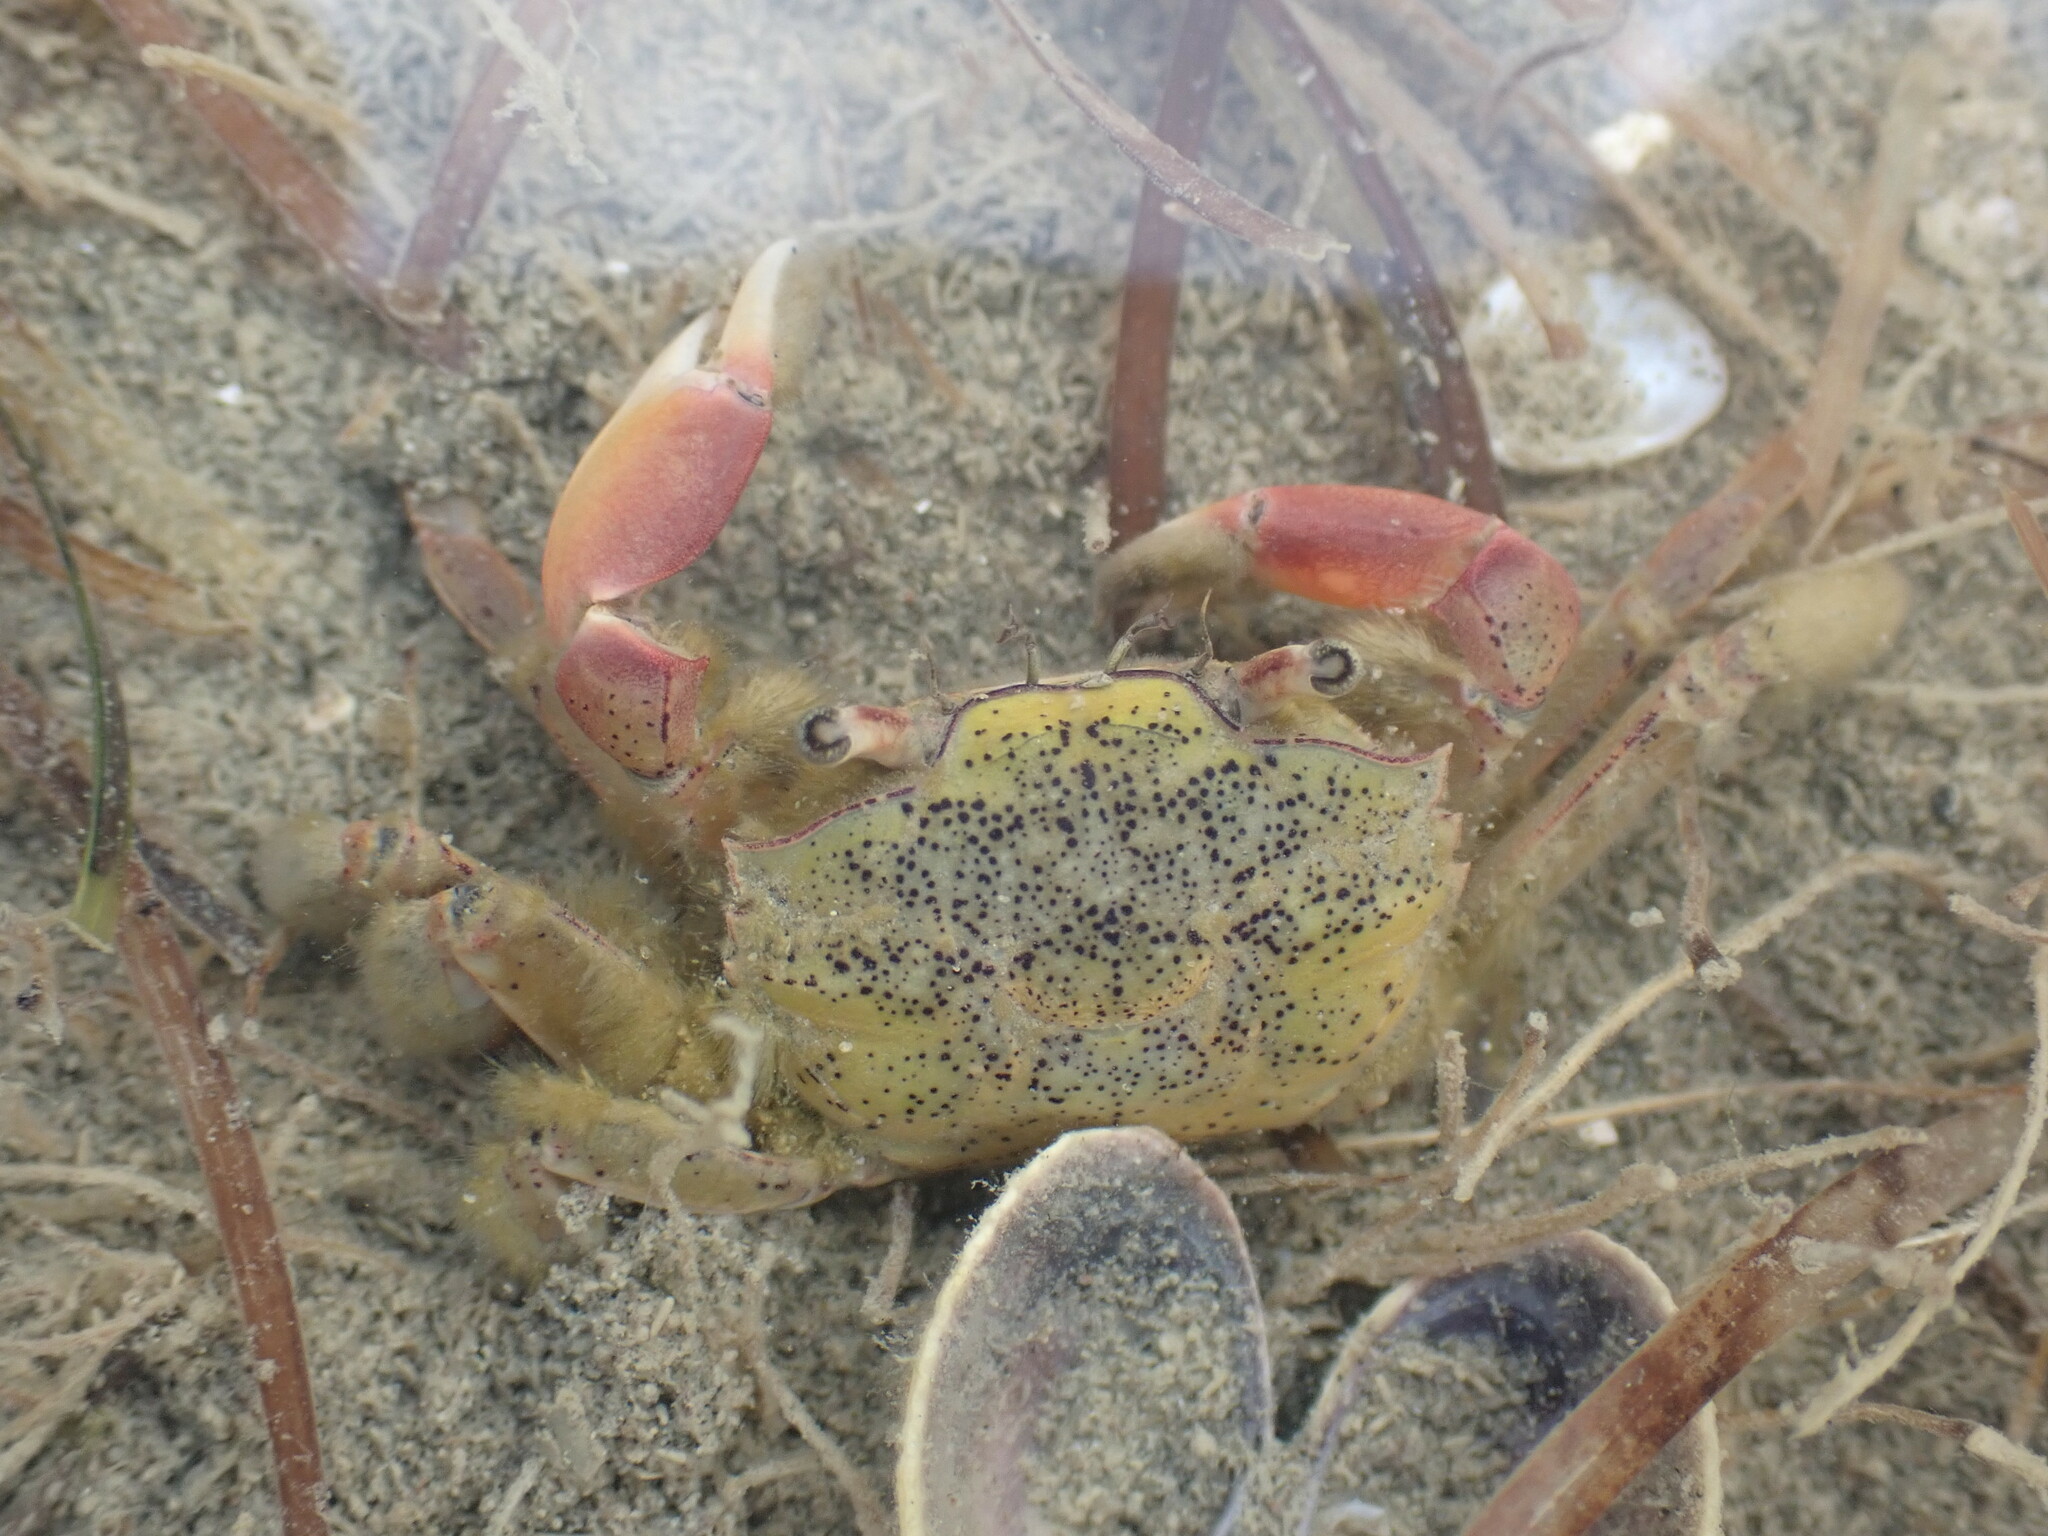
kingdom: Animalia
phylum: Arthropoda
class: Malacostraca
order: Decapoda
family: Macrophthalmidae
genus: Hemiplax
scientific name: Hemiplax hirtipes
